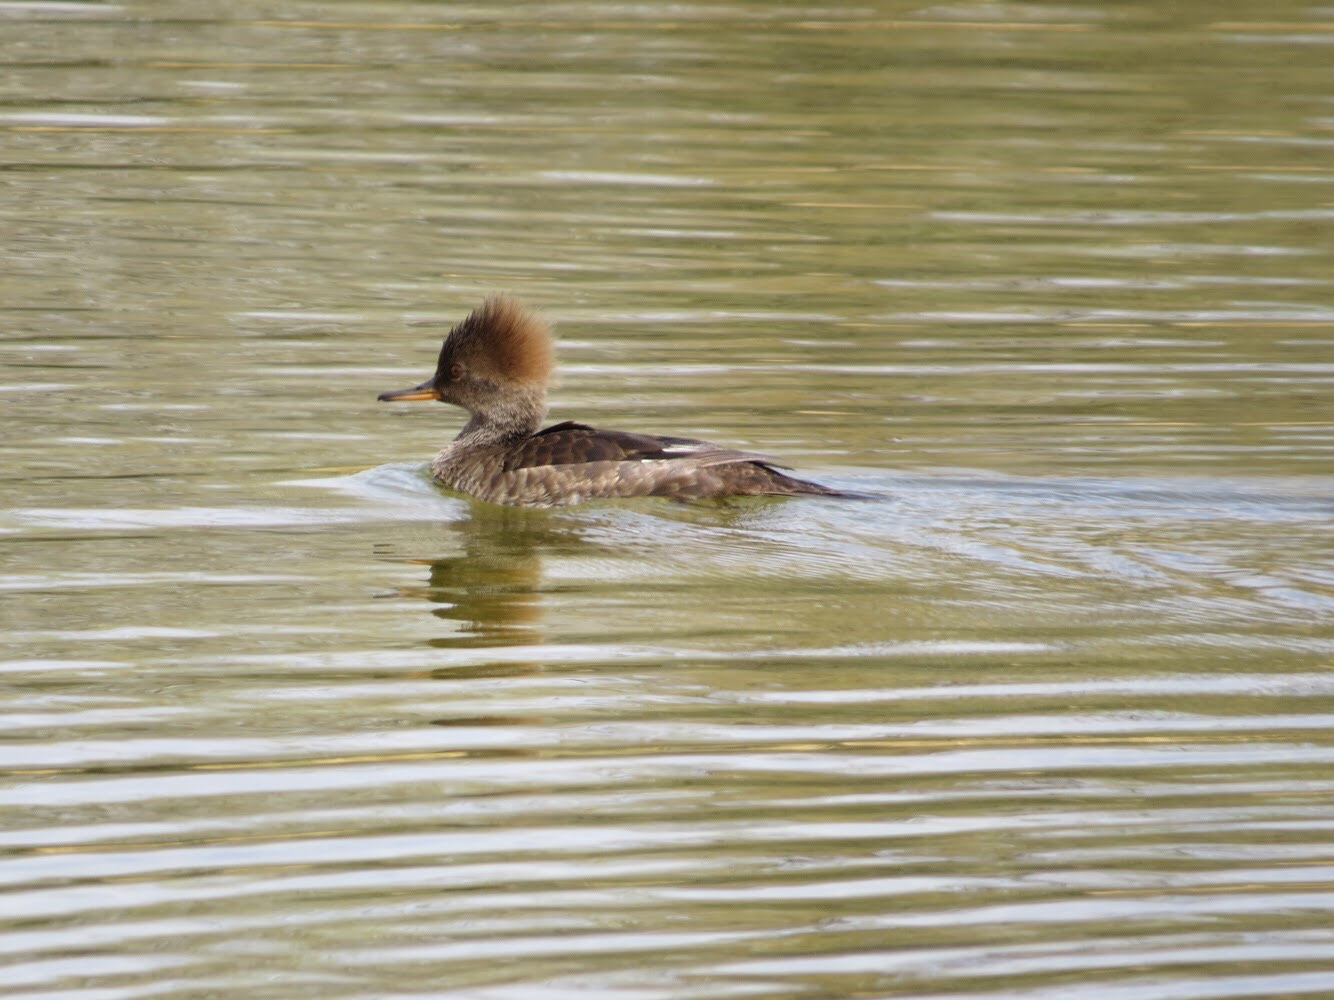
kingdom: Animalia
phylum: Chordata
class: Aves
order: Anseriformes
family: Anatidae
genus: Lophodytes
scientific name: Lophodytes cucullatus
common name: Hooded merganser
